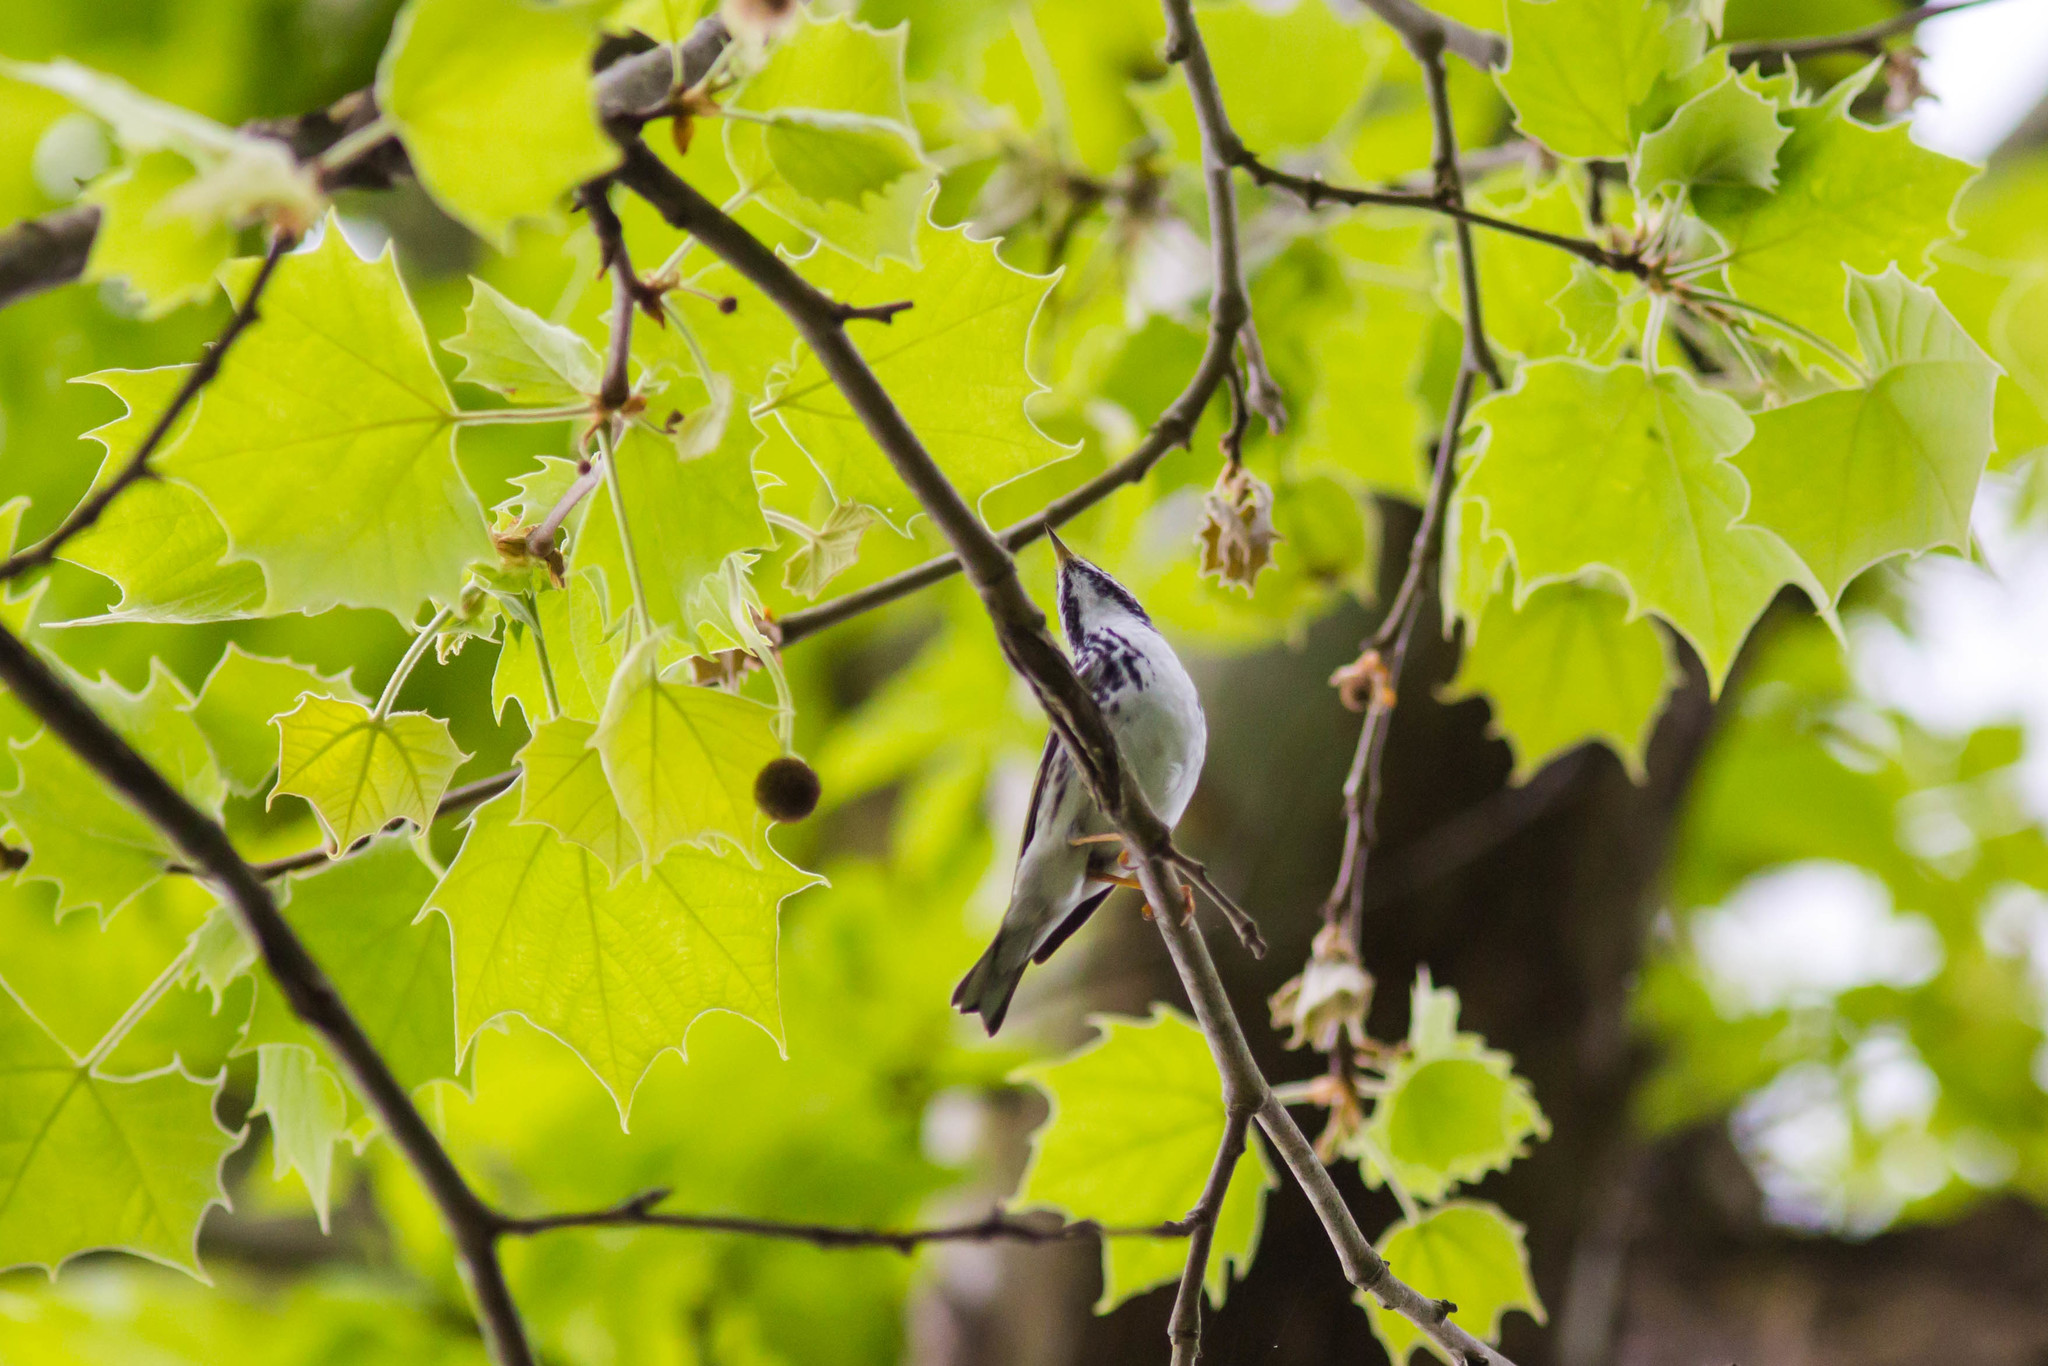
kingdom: Animalia
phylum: Chordata
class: Aves
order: Passeriformes
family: Parulidae
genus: Setophaga
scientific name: Setophaga striata
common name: Blackpoll warbler
